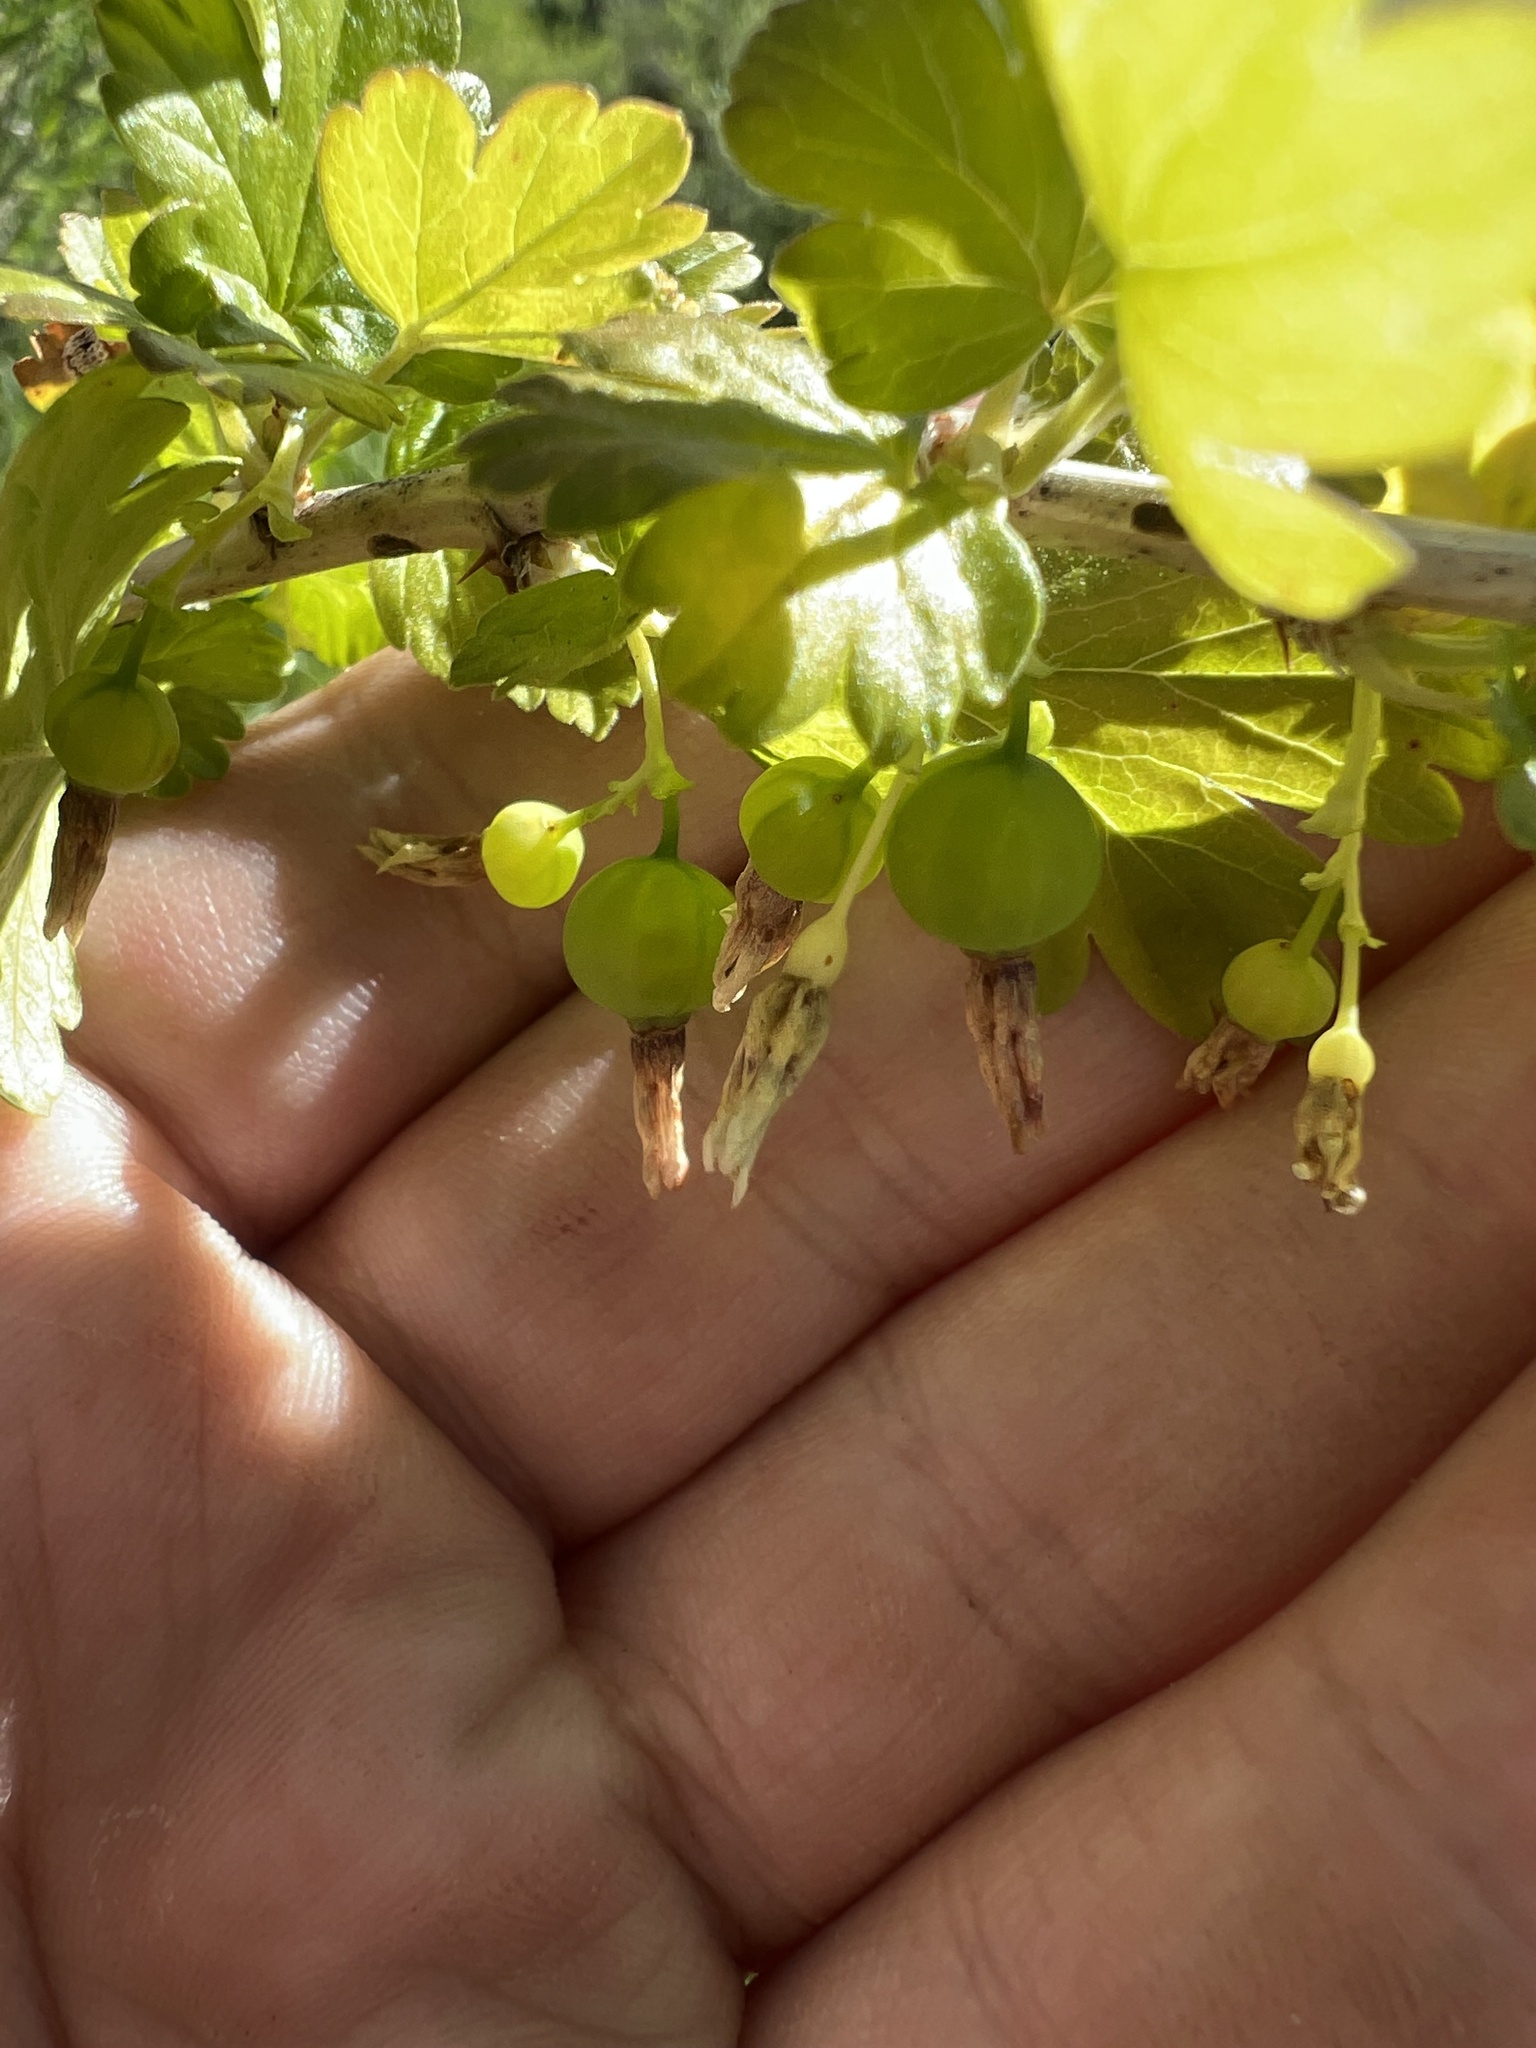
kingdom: Plantae
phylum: Tracheophyta
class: Magnoliopsida
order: Saxifragales
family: Grossulariaceae
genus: Ribes
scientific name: Ribes inerme
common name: White-stem gooseberry
